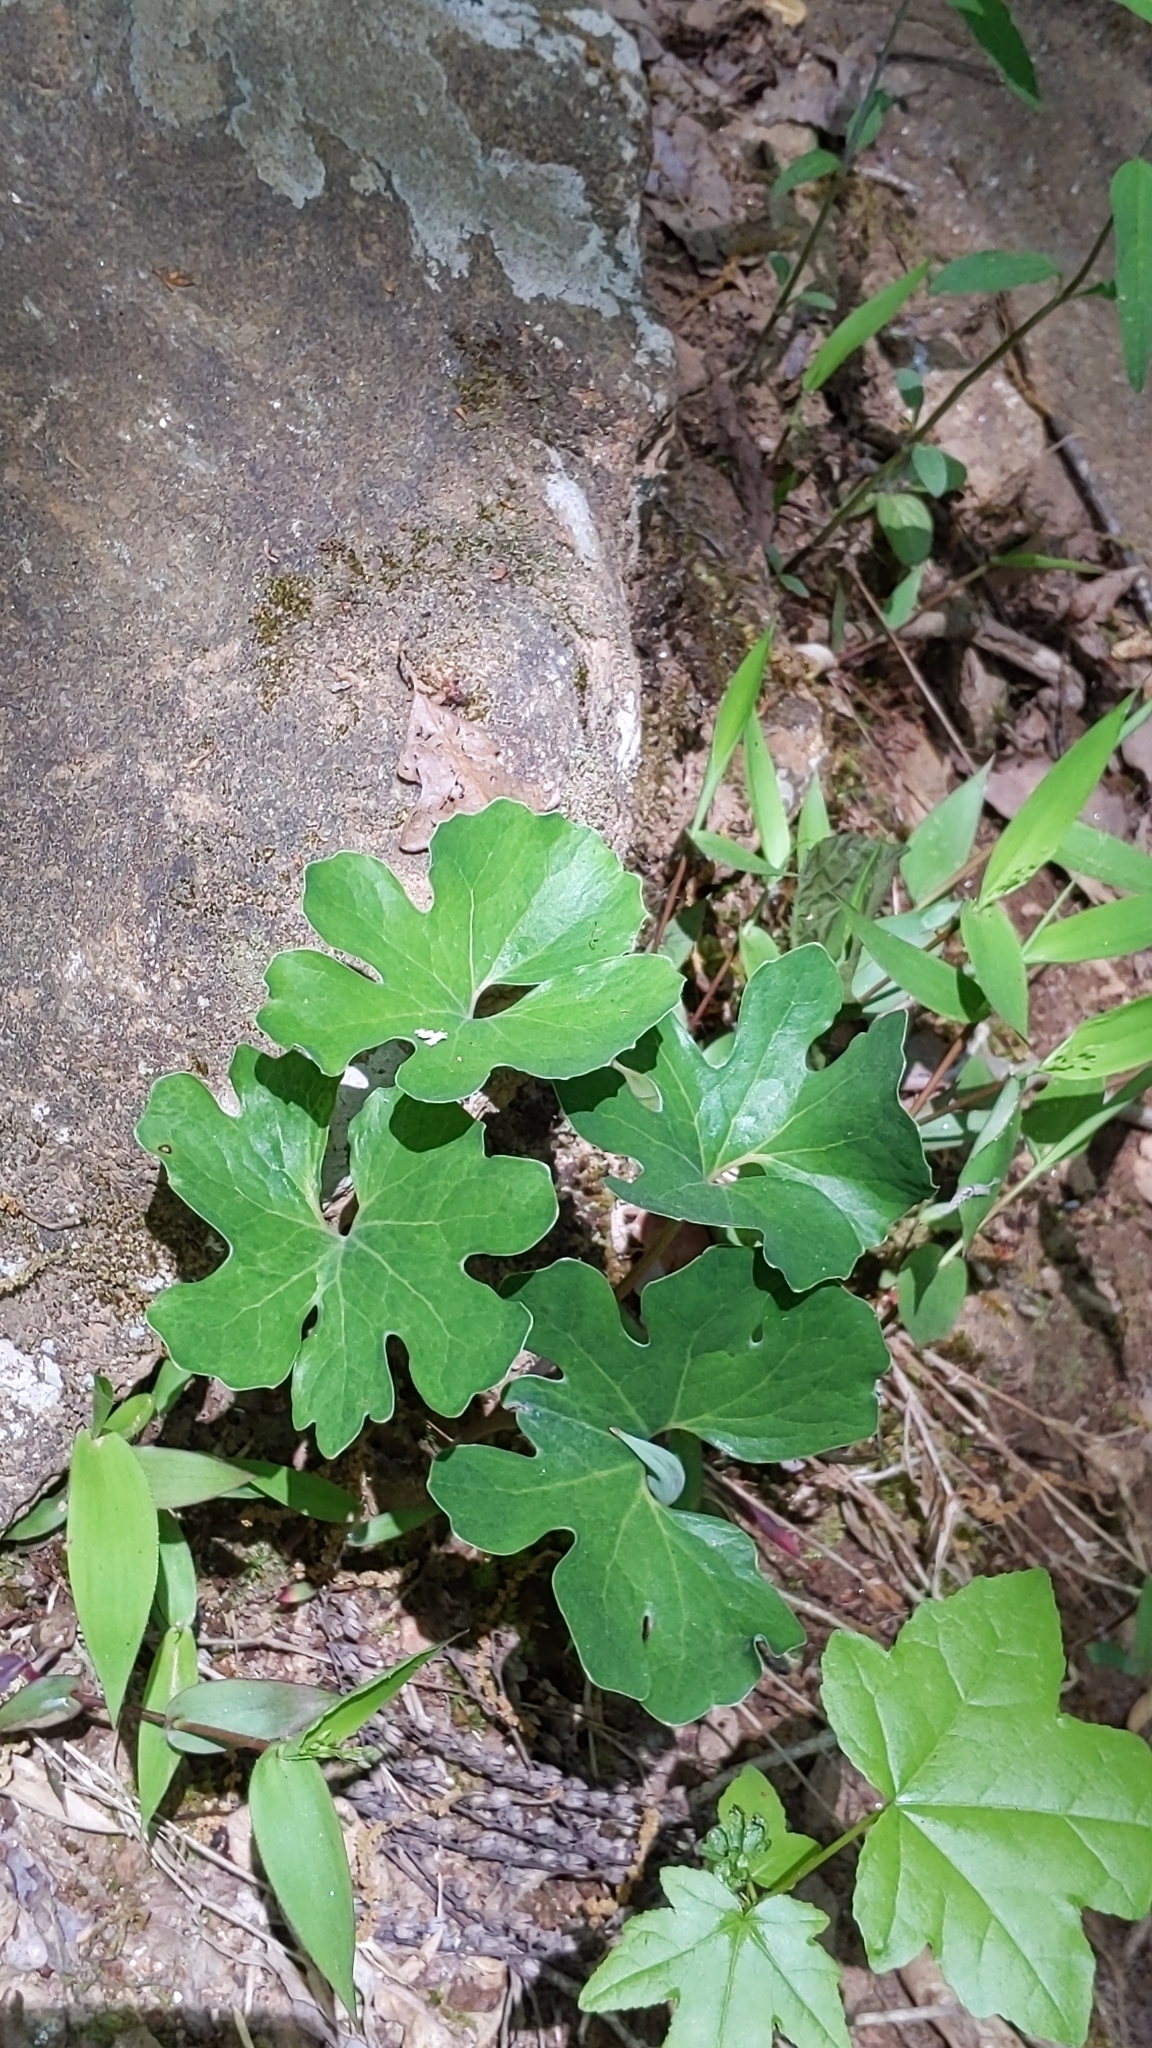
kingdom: Plantae
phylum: Tracheophyta
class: Magnoliopsida
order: Ranunculales
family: Papaveraceae
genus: Sanguinaria
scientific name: Sanguinaria canadensis
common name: Bloodroot
